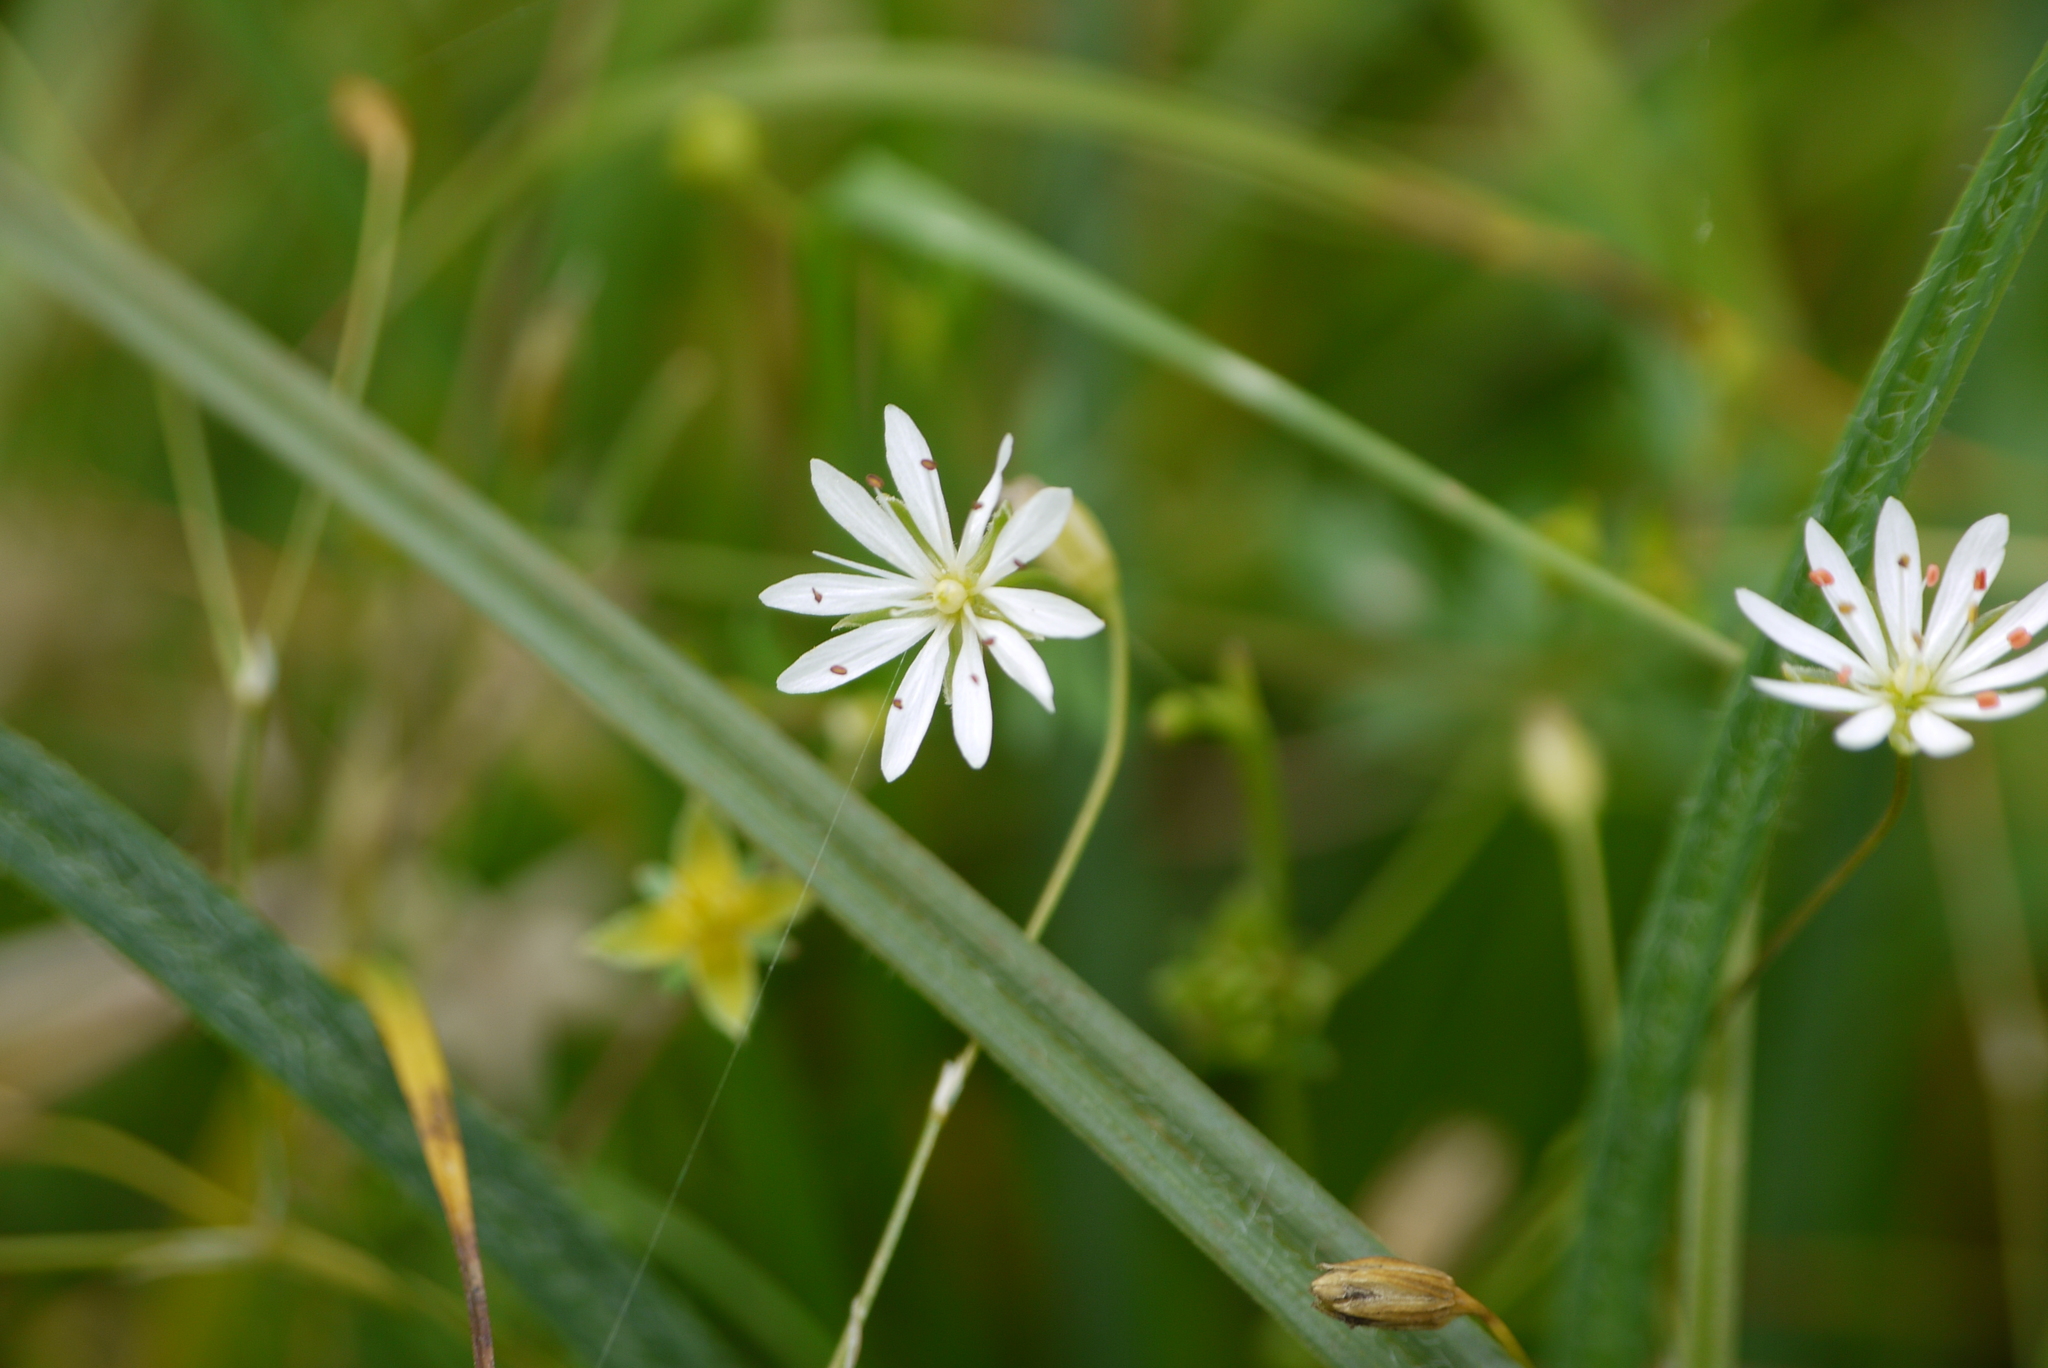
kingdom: Plantae
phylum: Tracheophyta
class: Magnoliopsida
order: Caryophyllales
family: Caryophyllaceae
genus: Stellaria
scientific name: Stellaria graminea
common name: Grass-like starwort
